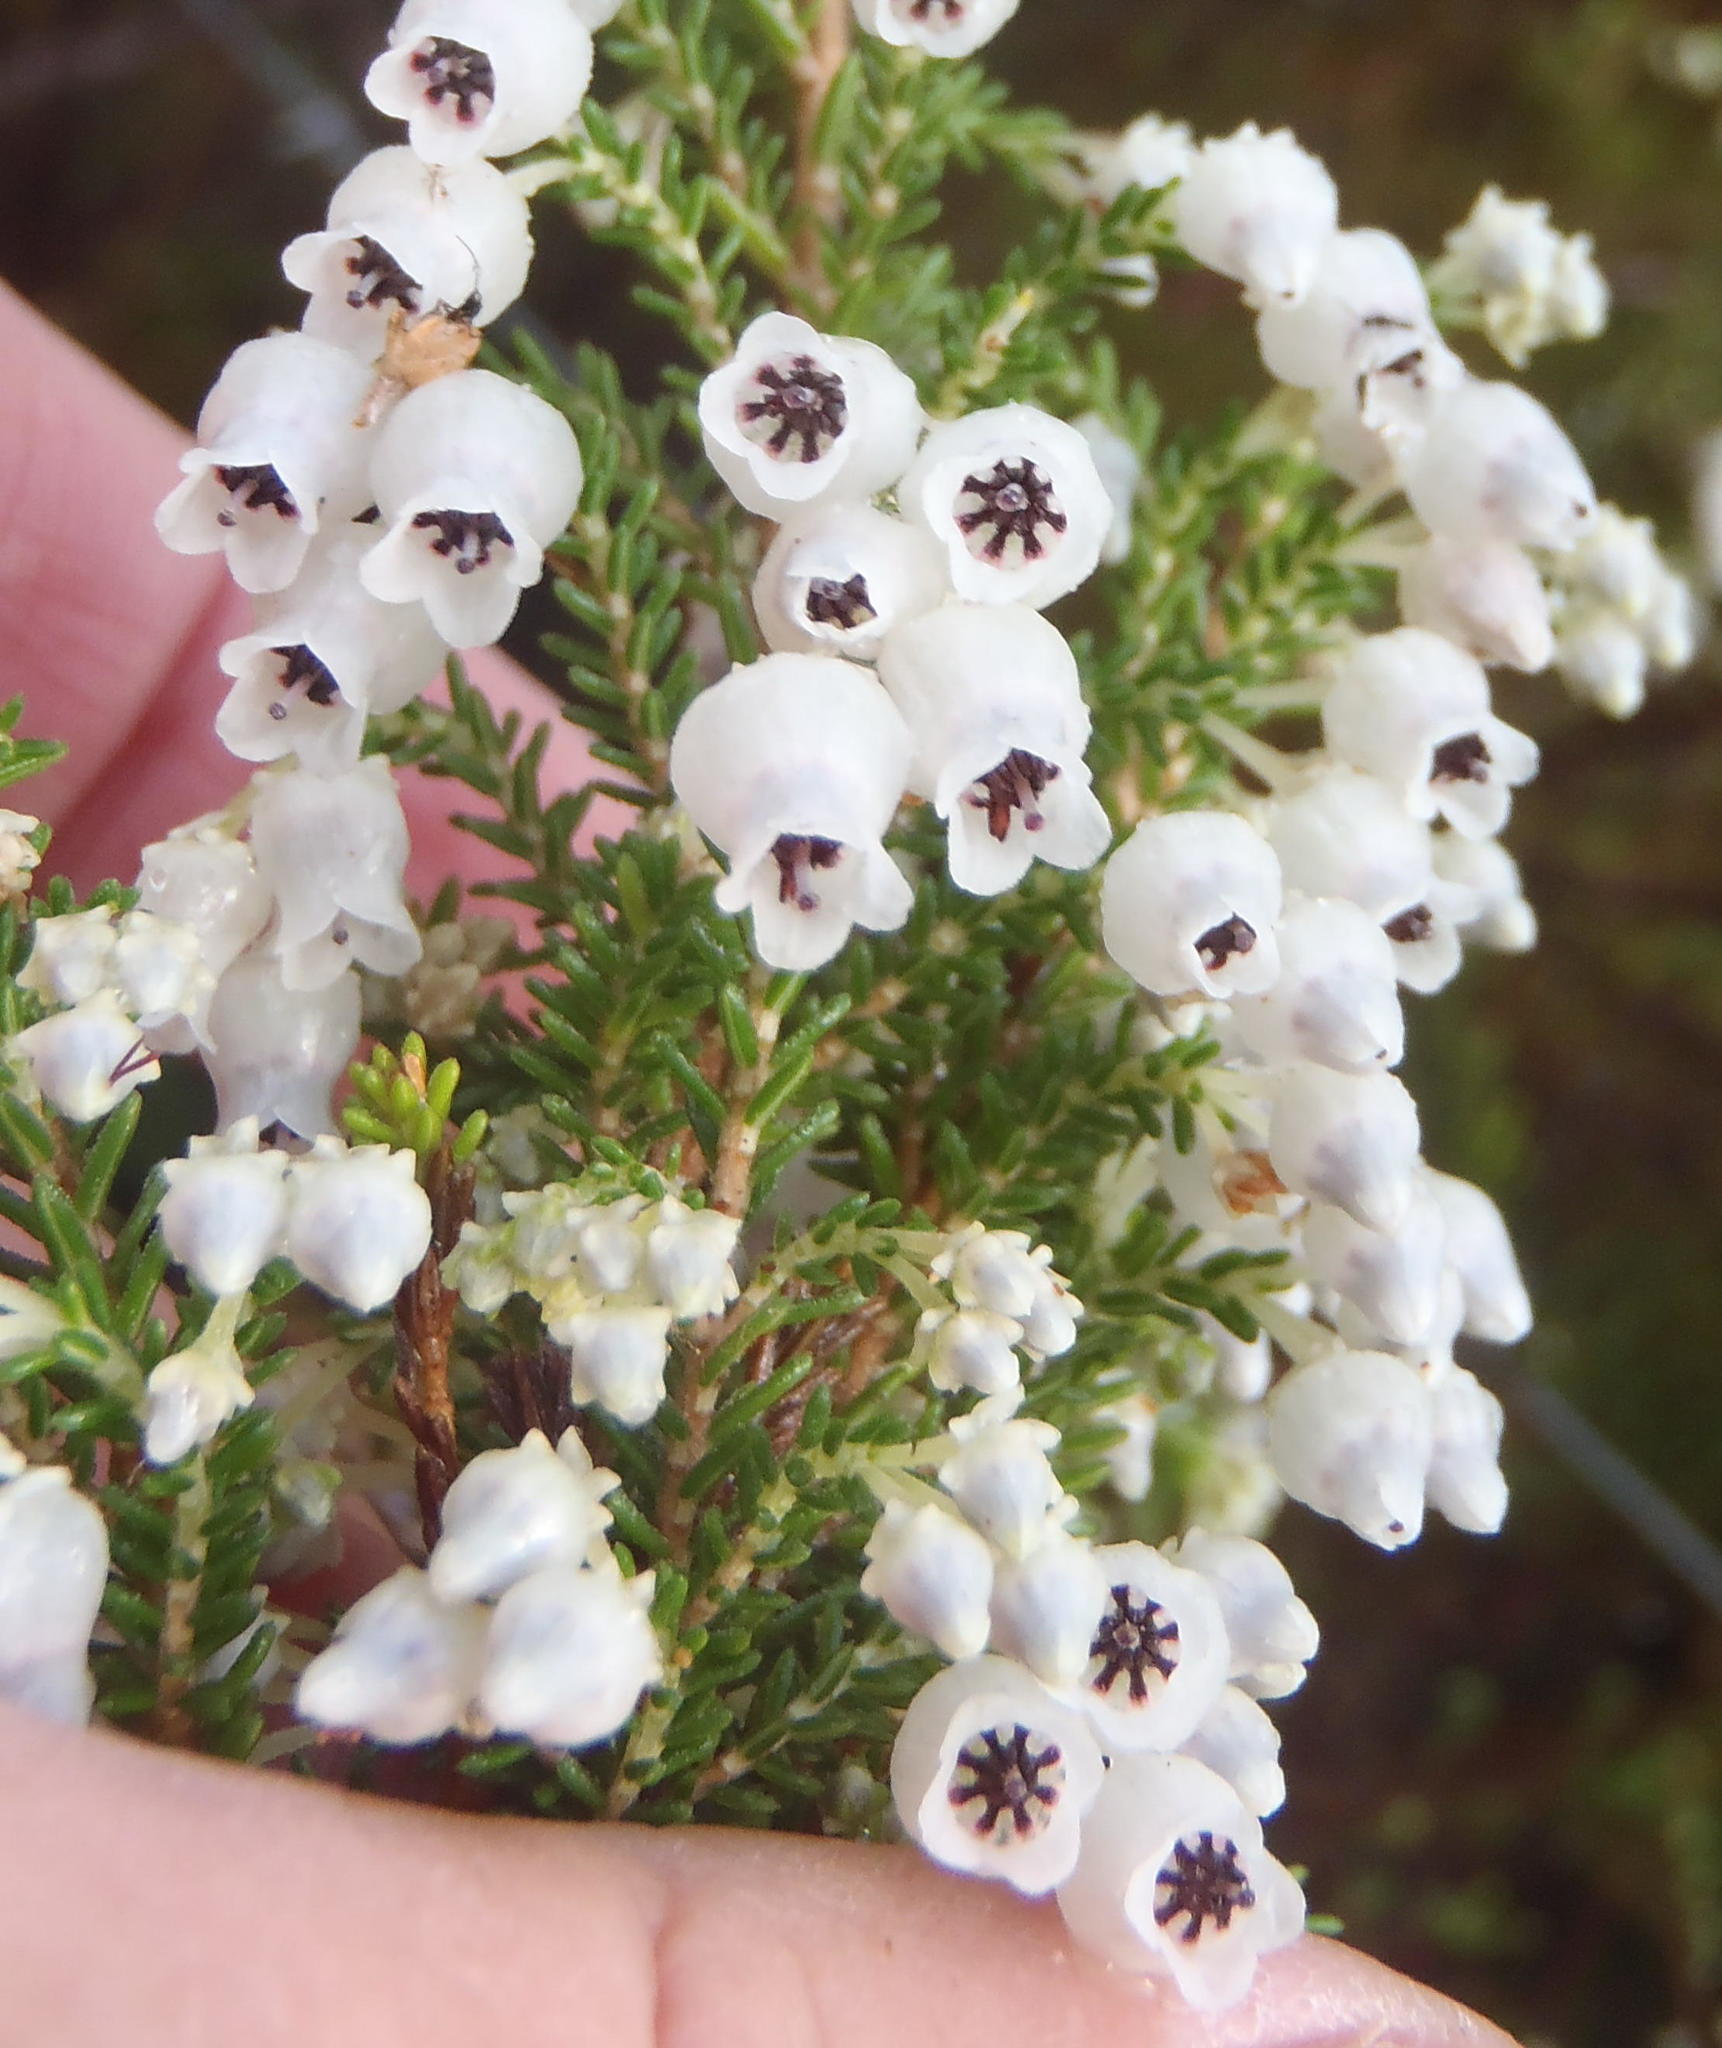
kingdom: Plantae
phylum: Tracheophyta
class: Magnoliopsida
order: Ericales
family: Ericaceae
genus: Erica
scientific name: Erica glomiflora
